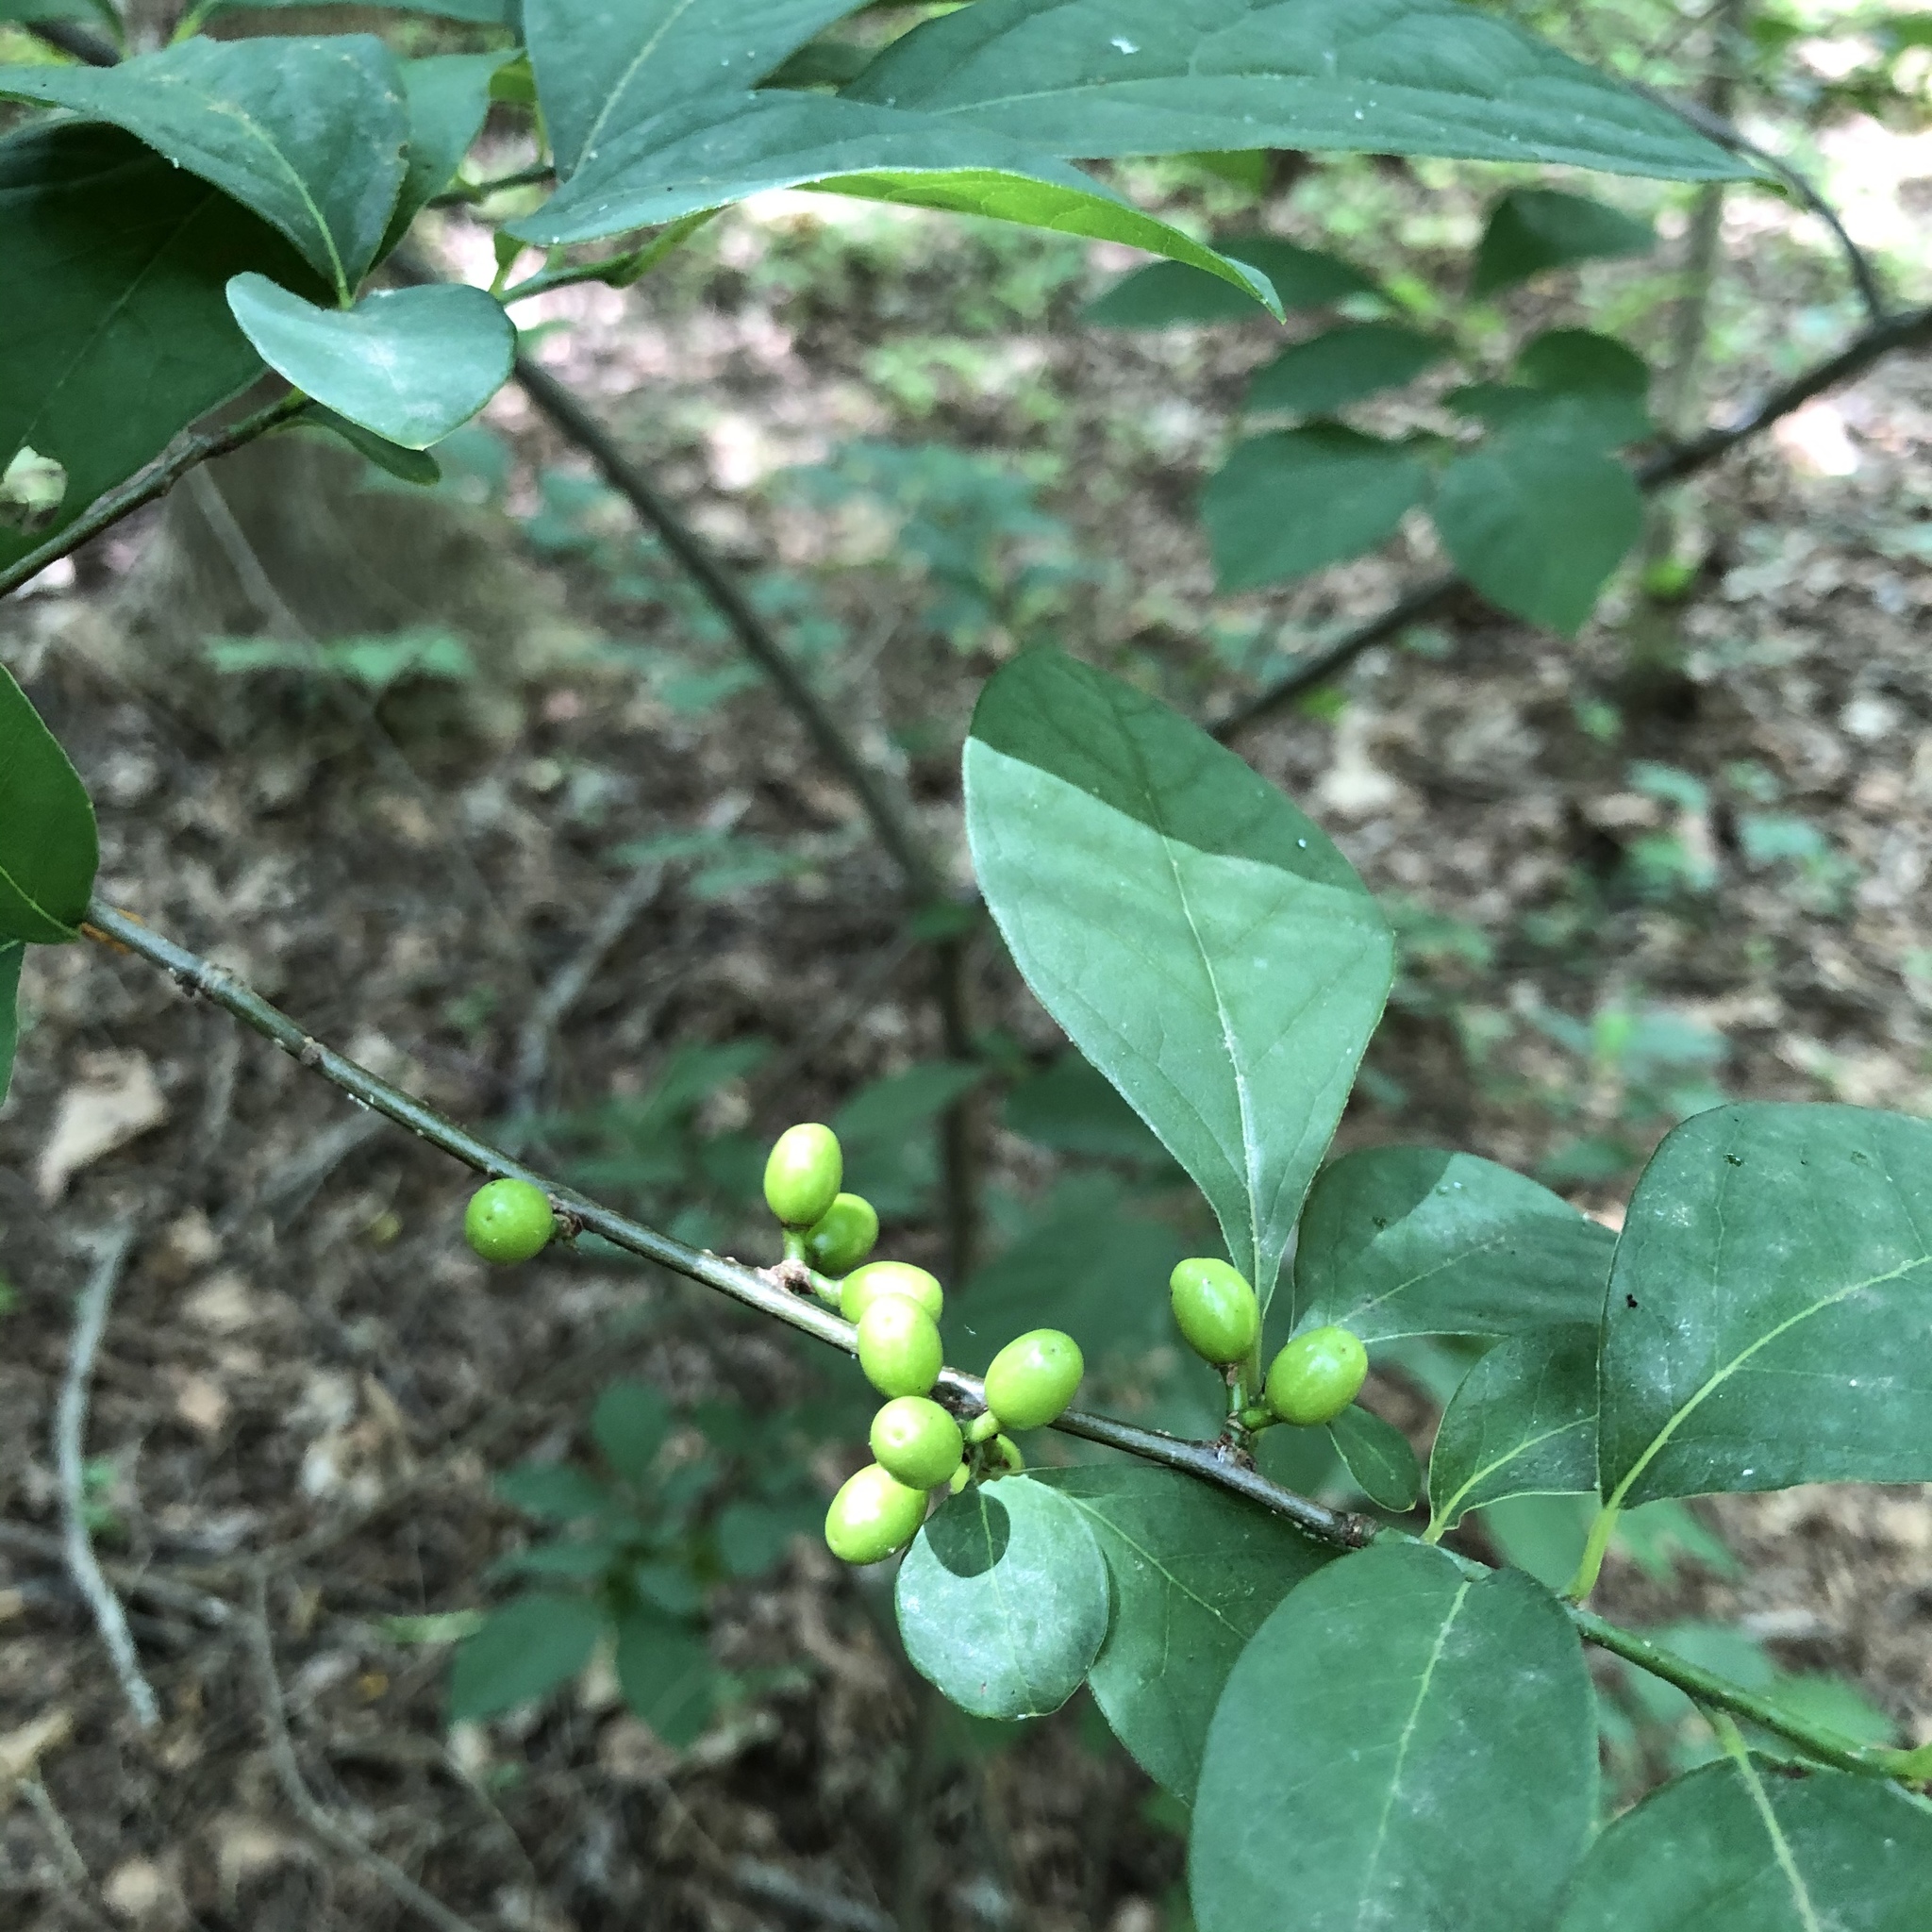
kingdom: Plantae
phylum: Tracheophyta
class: Magnoliopsida
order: Laurales
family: Lauraceae
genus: Lindera
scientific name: Lindera benzoin
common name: Spicebush
